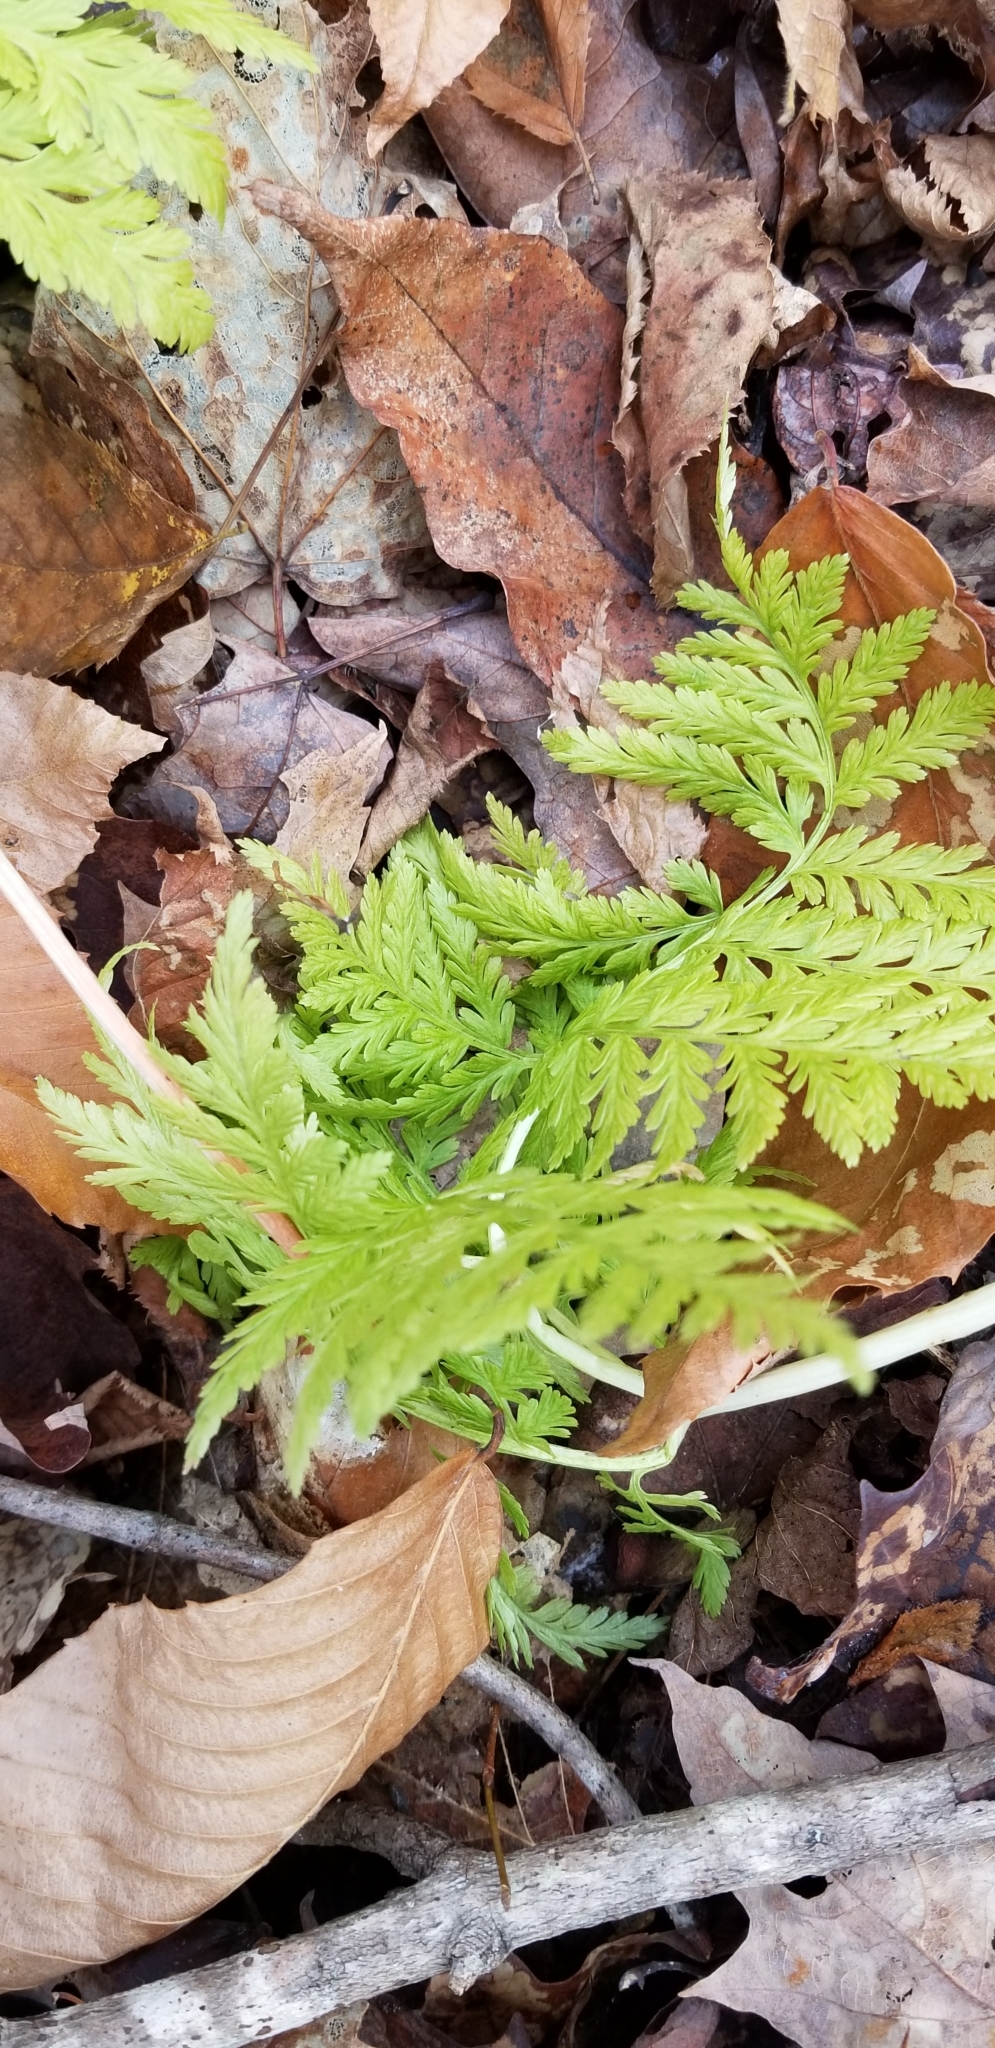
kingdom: Plantae
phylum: Tracheophyta
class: Polypodiopsida
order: Ophioglossales
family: Ophioglossaceae
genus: Botrypus
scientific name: Botrypus virginianus
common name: Common grapefern
